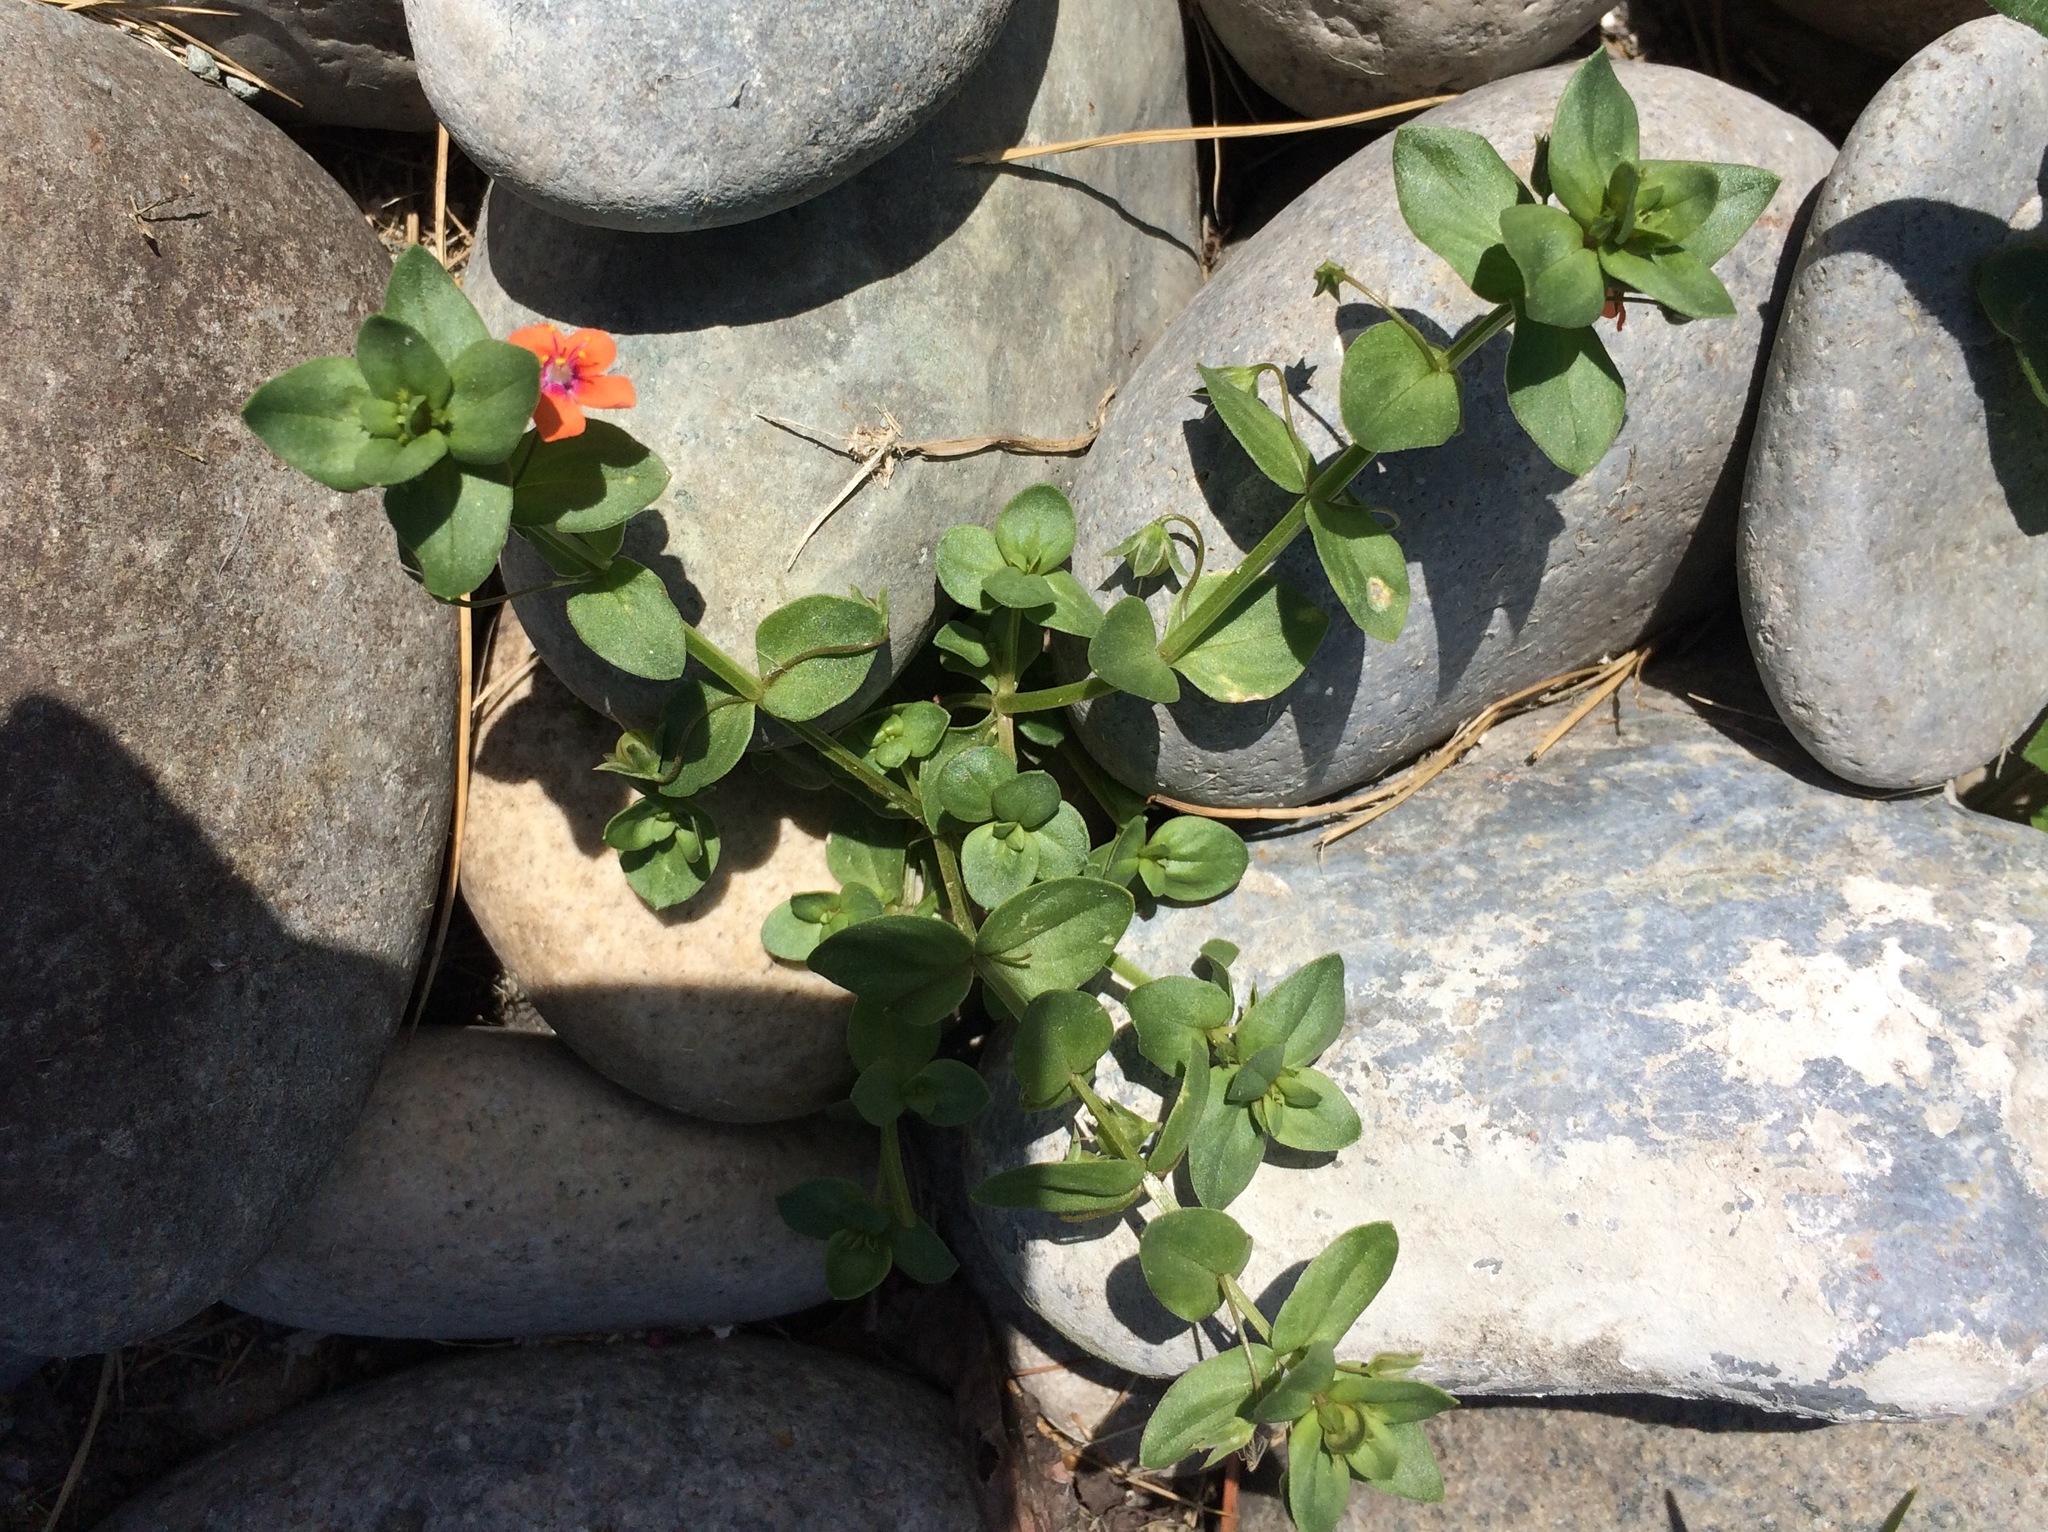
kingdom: Plantae
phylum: Tracheophyta
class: Magnoliopsida
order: Ericales
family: Primulaceae
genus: Lysimachia
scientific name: Lysimachia arvensis
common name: Scarlet pimpernel
